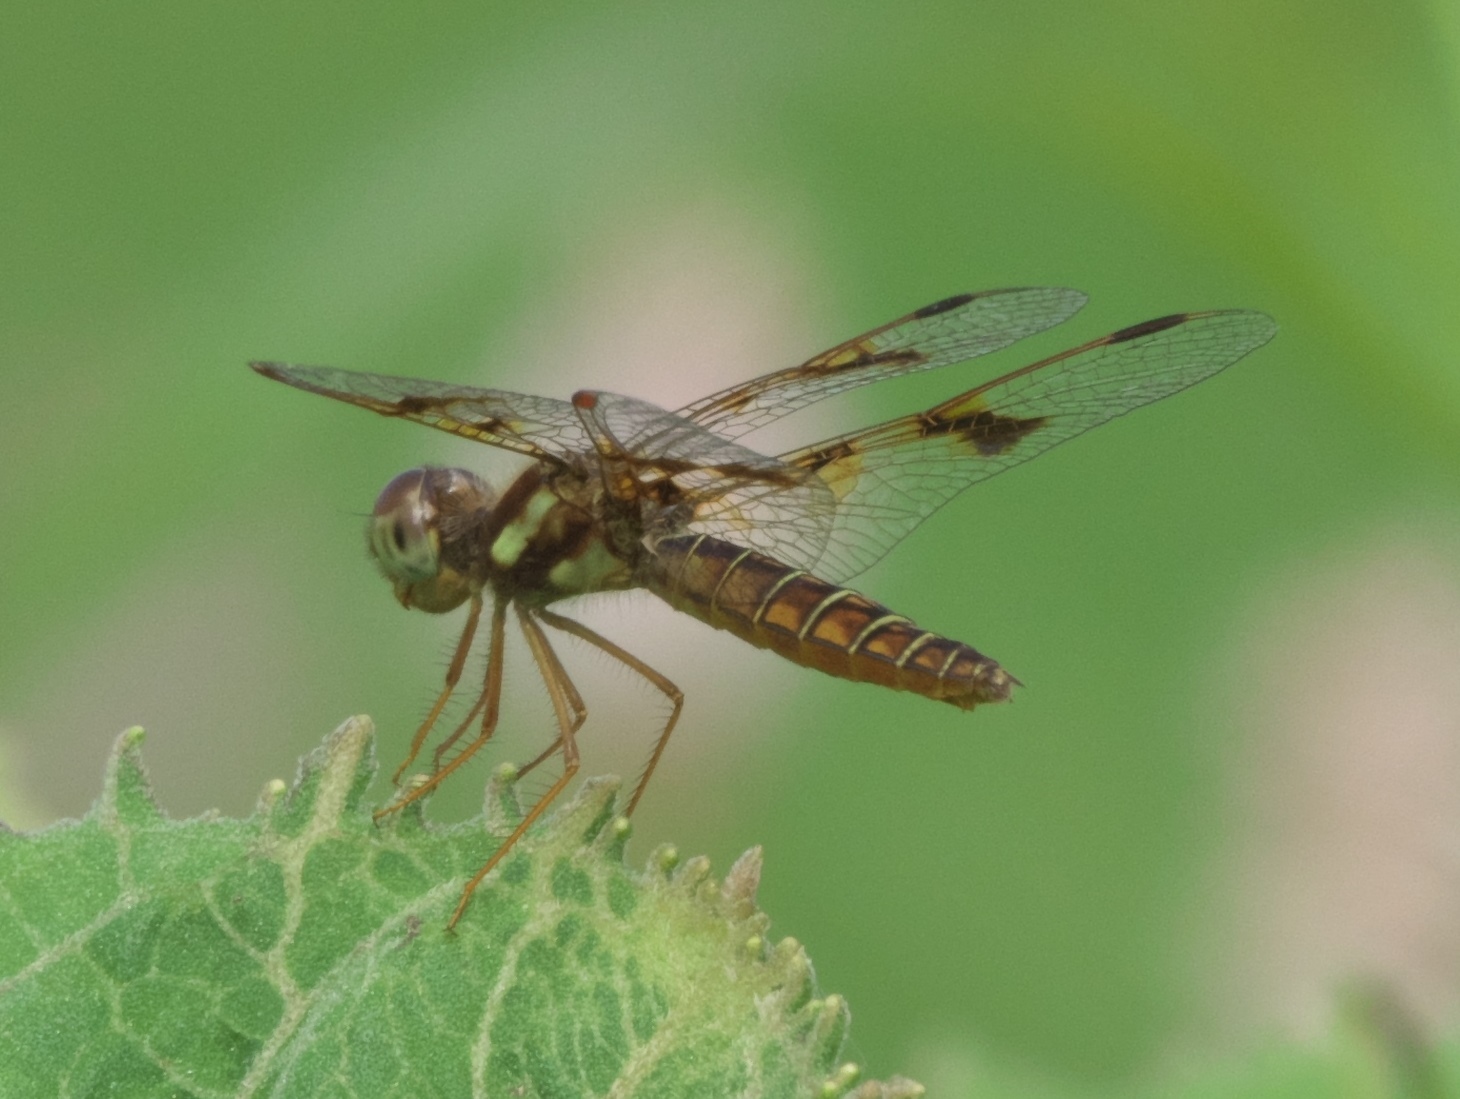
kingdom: Animalia
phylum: Arthropoda
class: Insecta
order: Odonata
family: Libellulidae
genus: Perithemis
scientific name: Perithemis tenera
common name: Eastern amberwing
